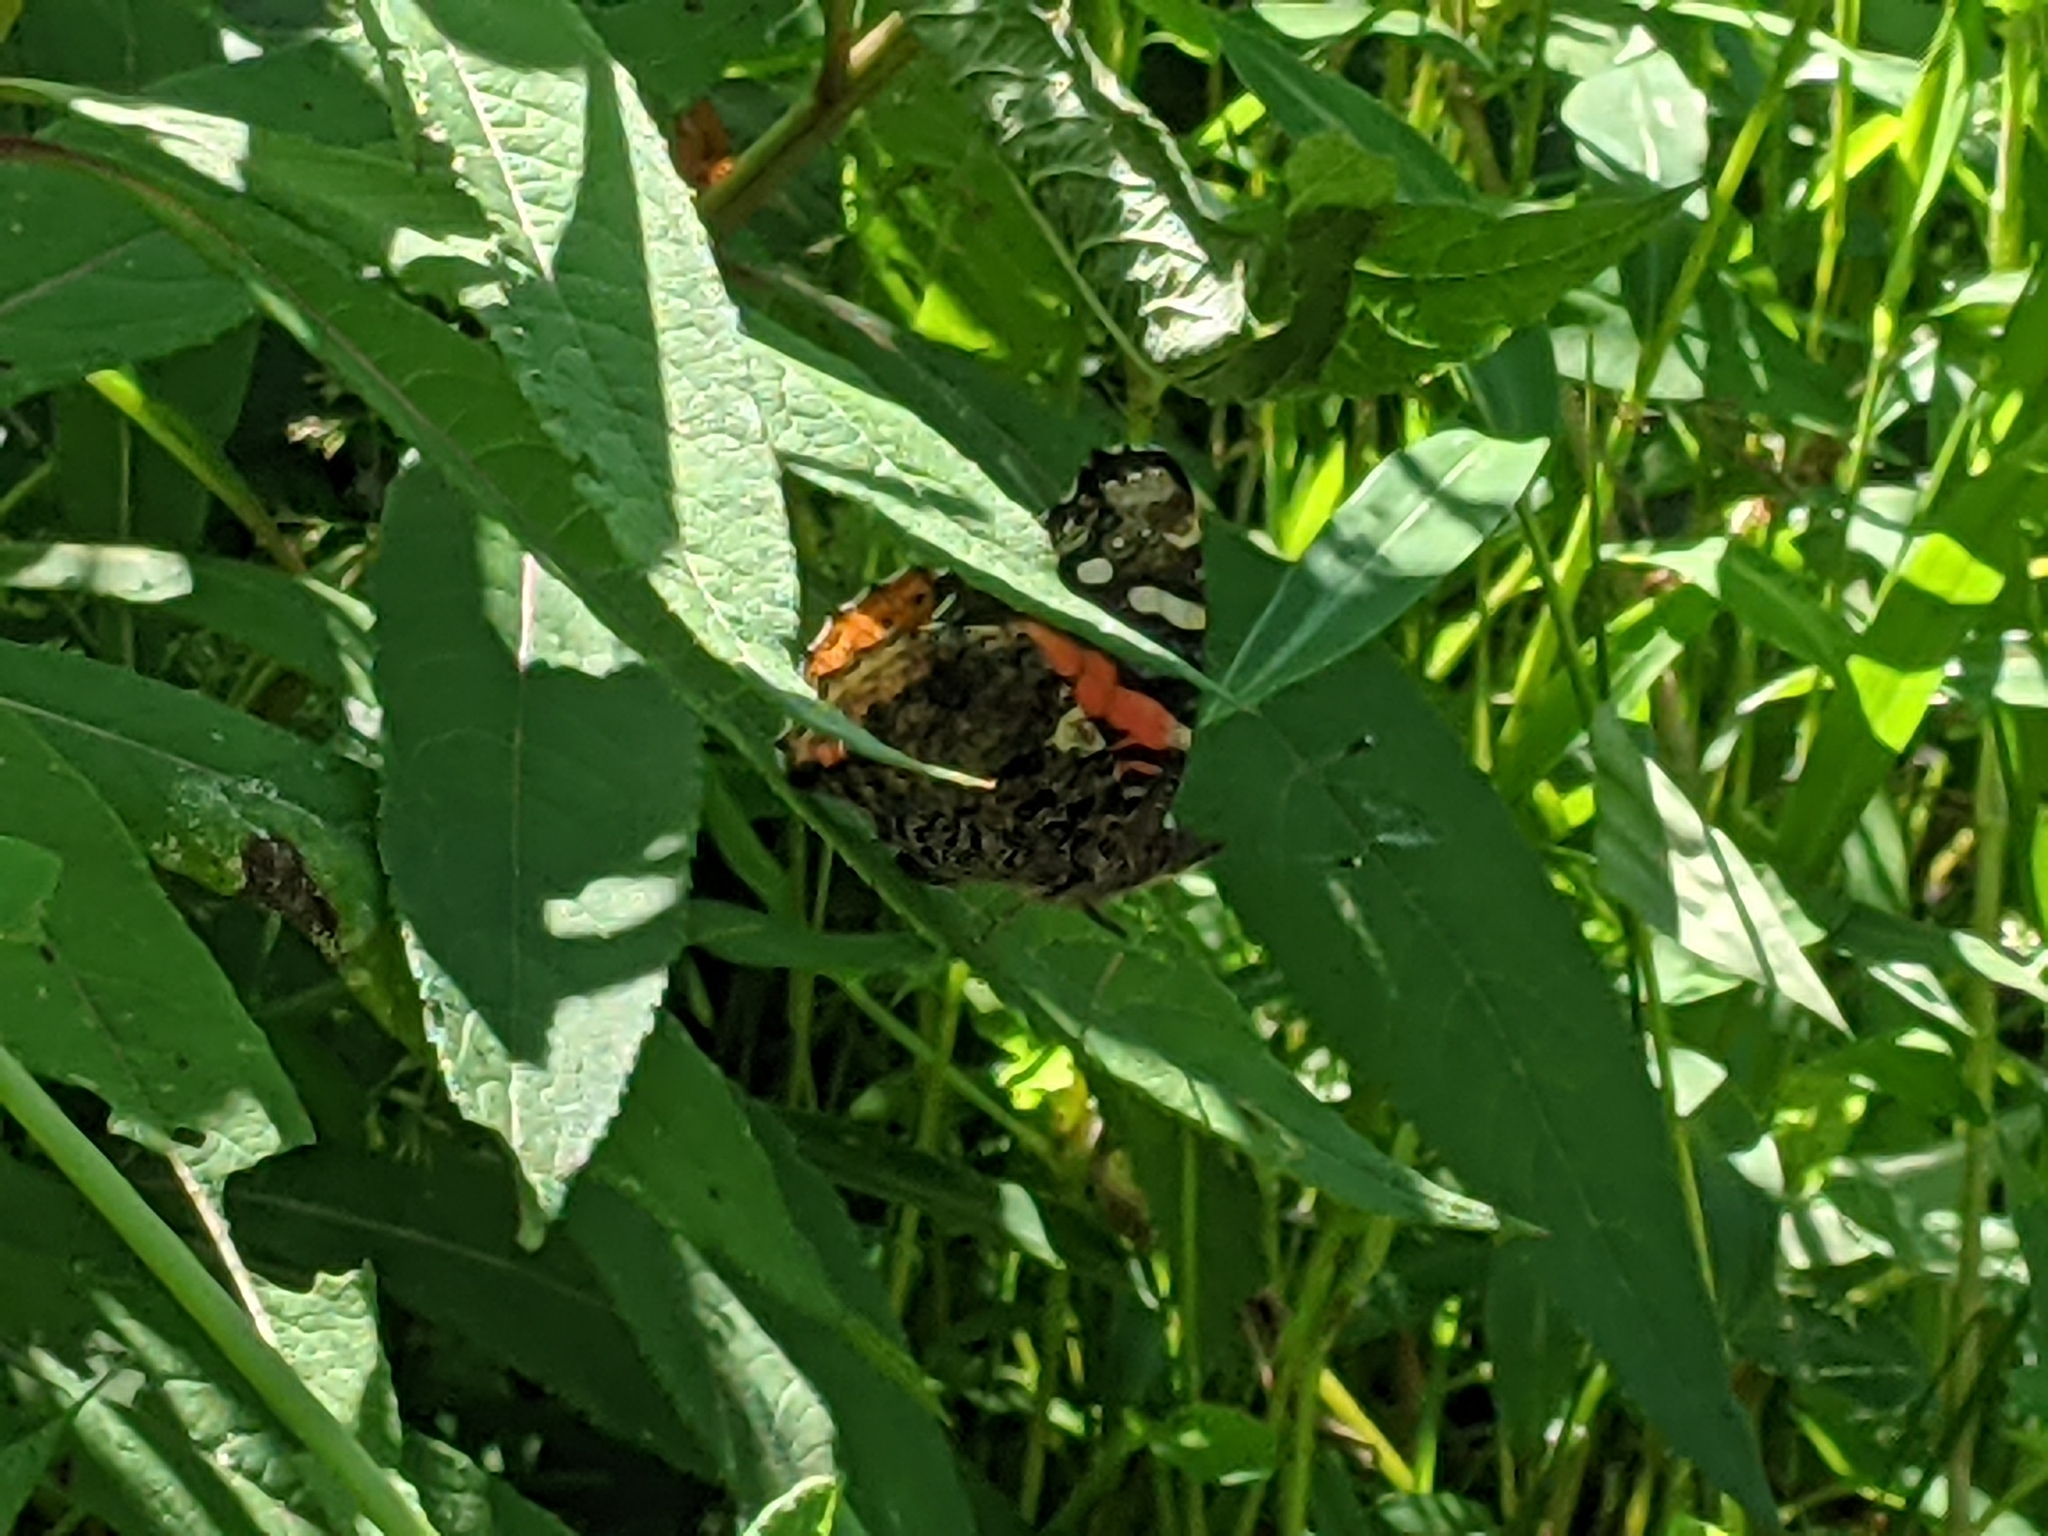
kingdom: Animalia
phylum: Arthropoda
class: Insecta
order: Lepidoptera
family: Nymphalidae
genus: Vanessa
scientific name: Vanessa atalanta
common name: Red admiral
